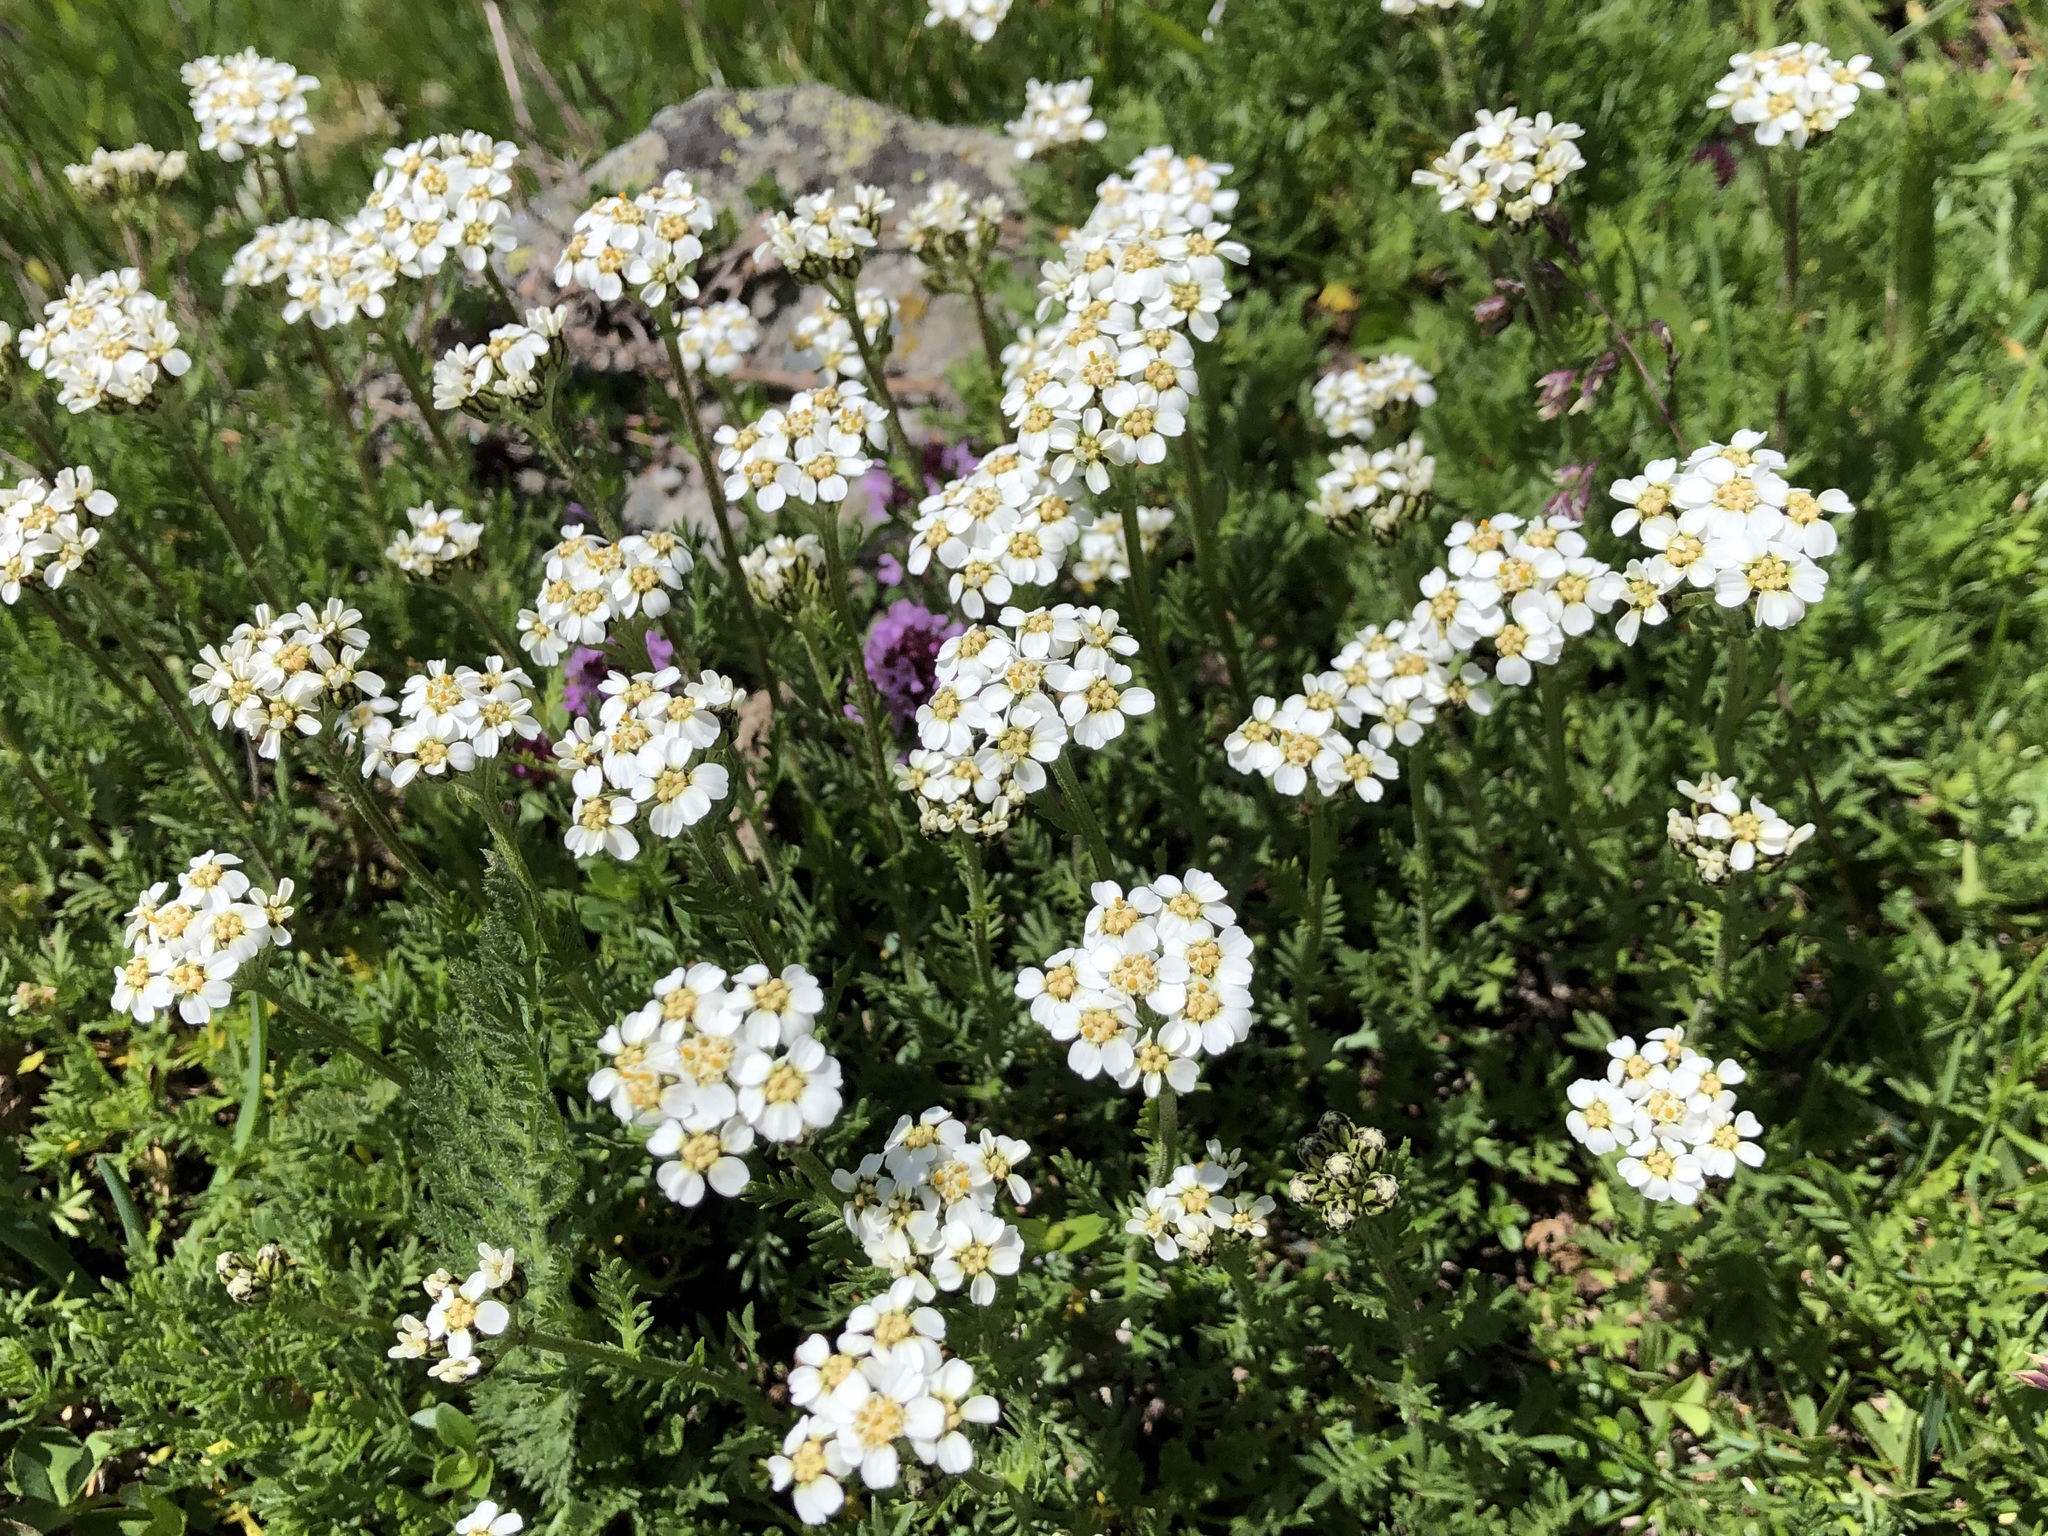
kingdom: Plantae
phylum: Tracheophyta
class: Magnoliopsida
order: Asterales
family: Asteraceae
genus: Achillea
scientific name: Achillea erba-rotta
